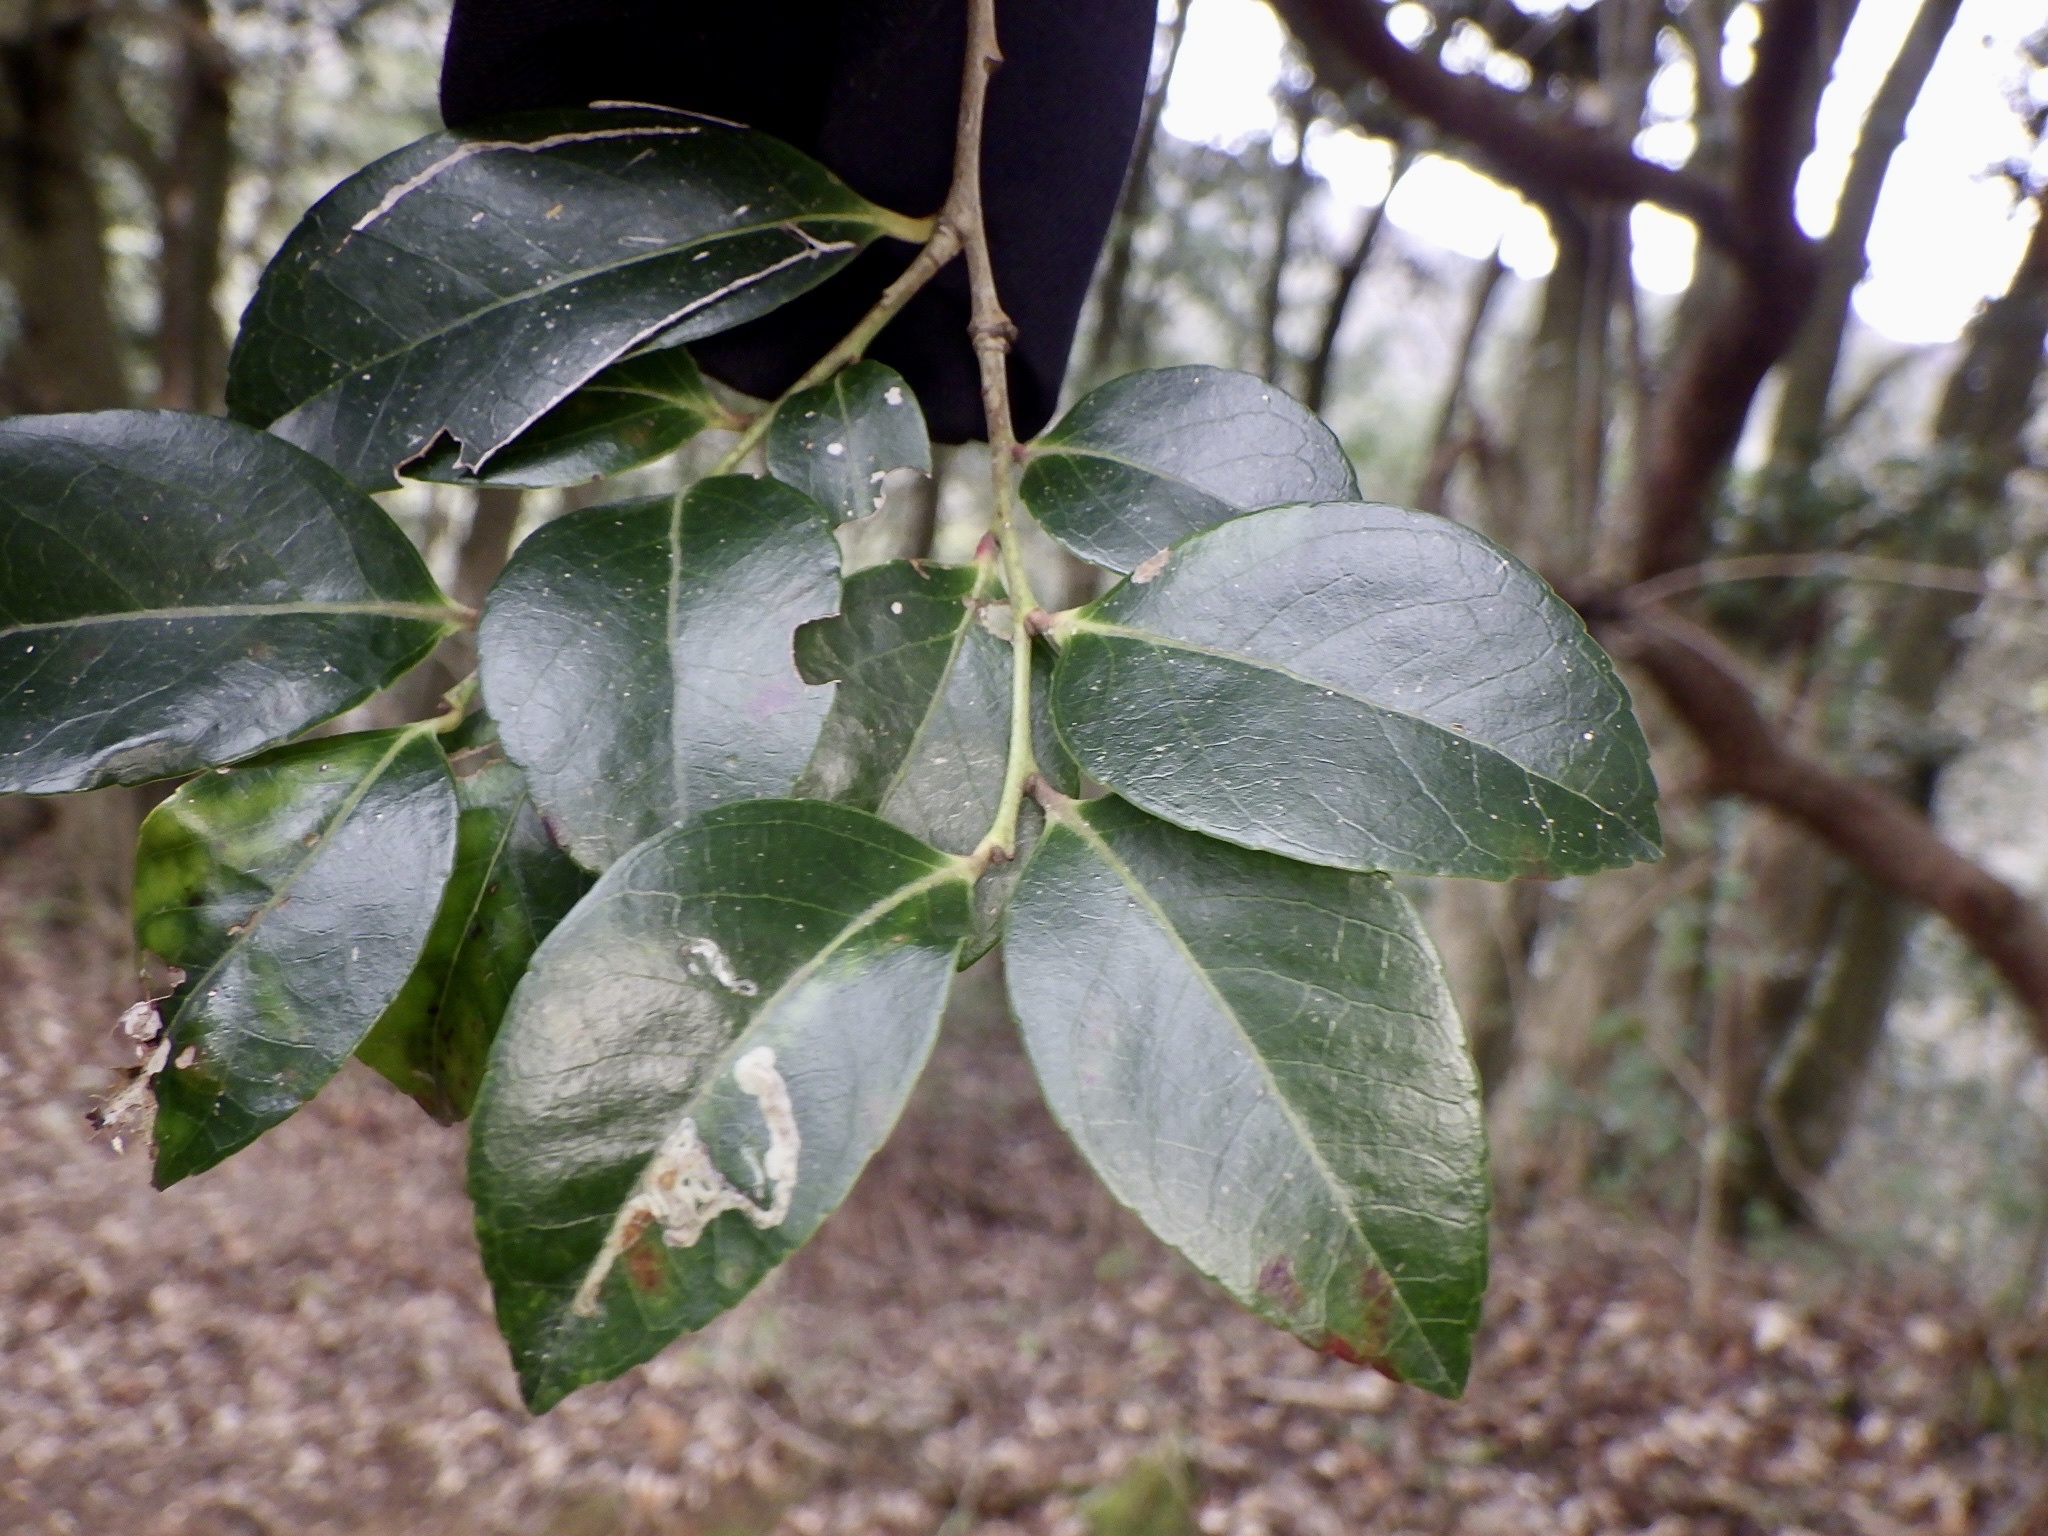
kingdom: Plantae
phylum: Tracheophyta
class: Magnoliopsida
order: Ericales
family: Ericaceae
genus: Vaccinium
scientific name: Vaccinium bracteatum
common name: Sea bilberry
